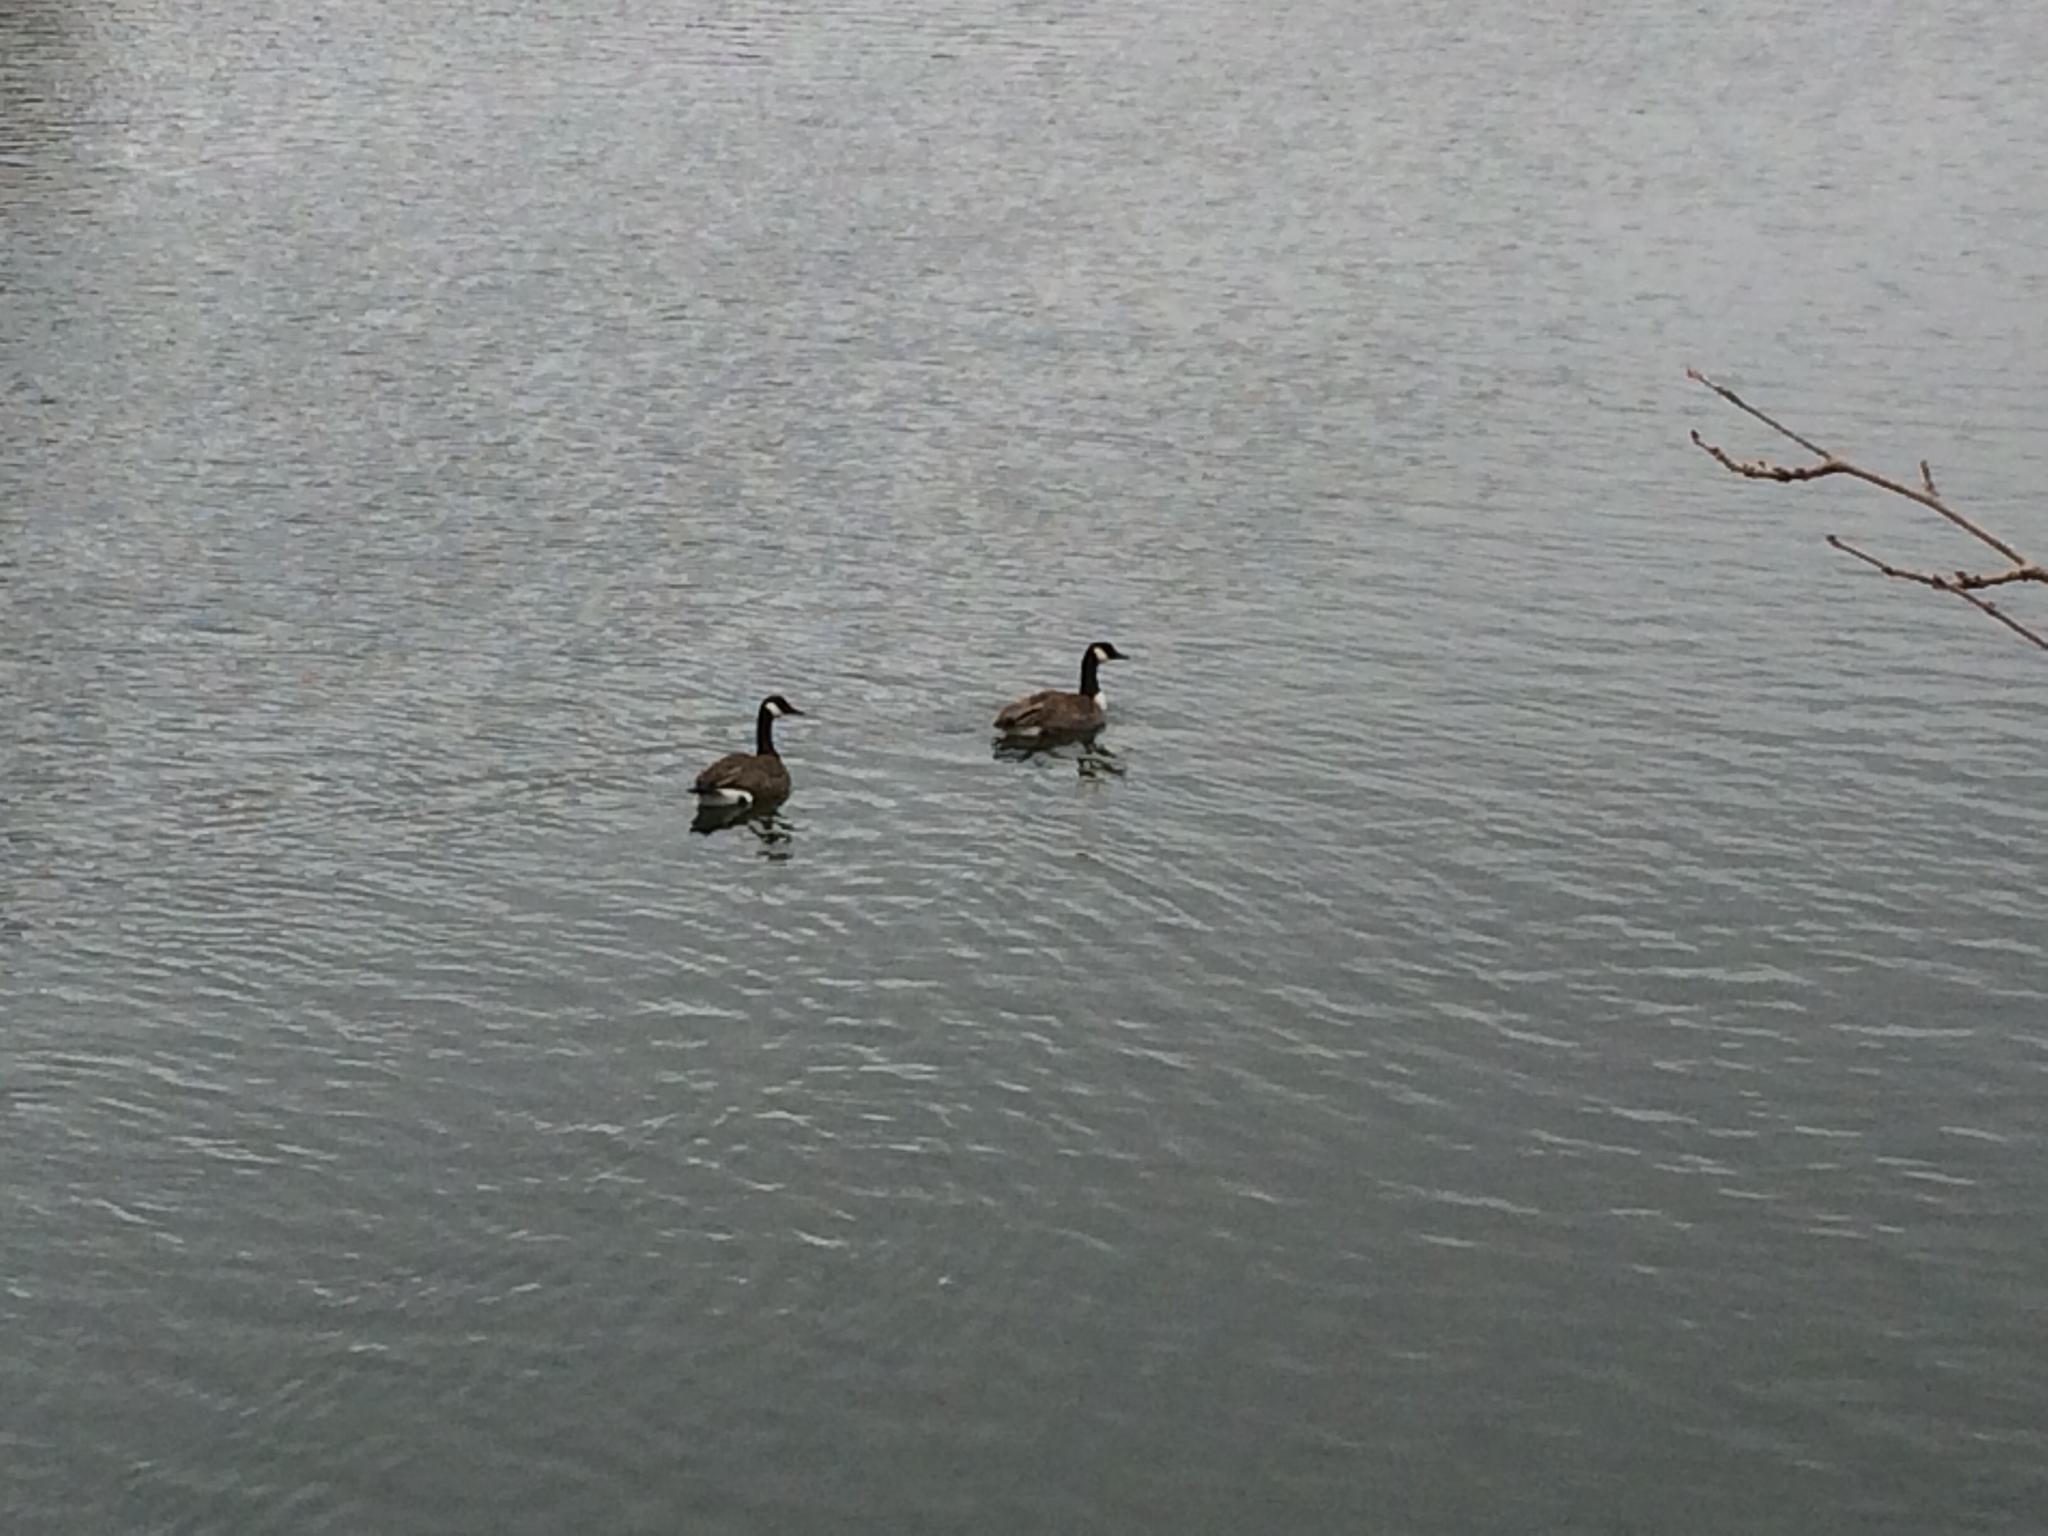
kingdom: Animalia
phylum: Chordata
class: Aves
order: Anseriformes
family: Anatidae
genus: Branta
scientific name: Branta canadensis
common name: Canada goose
